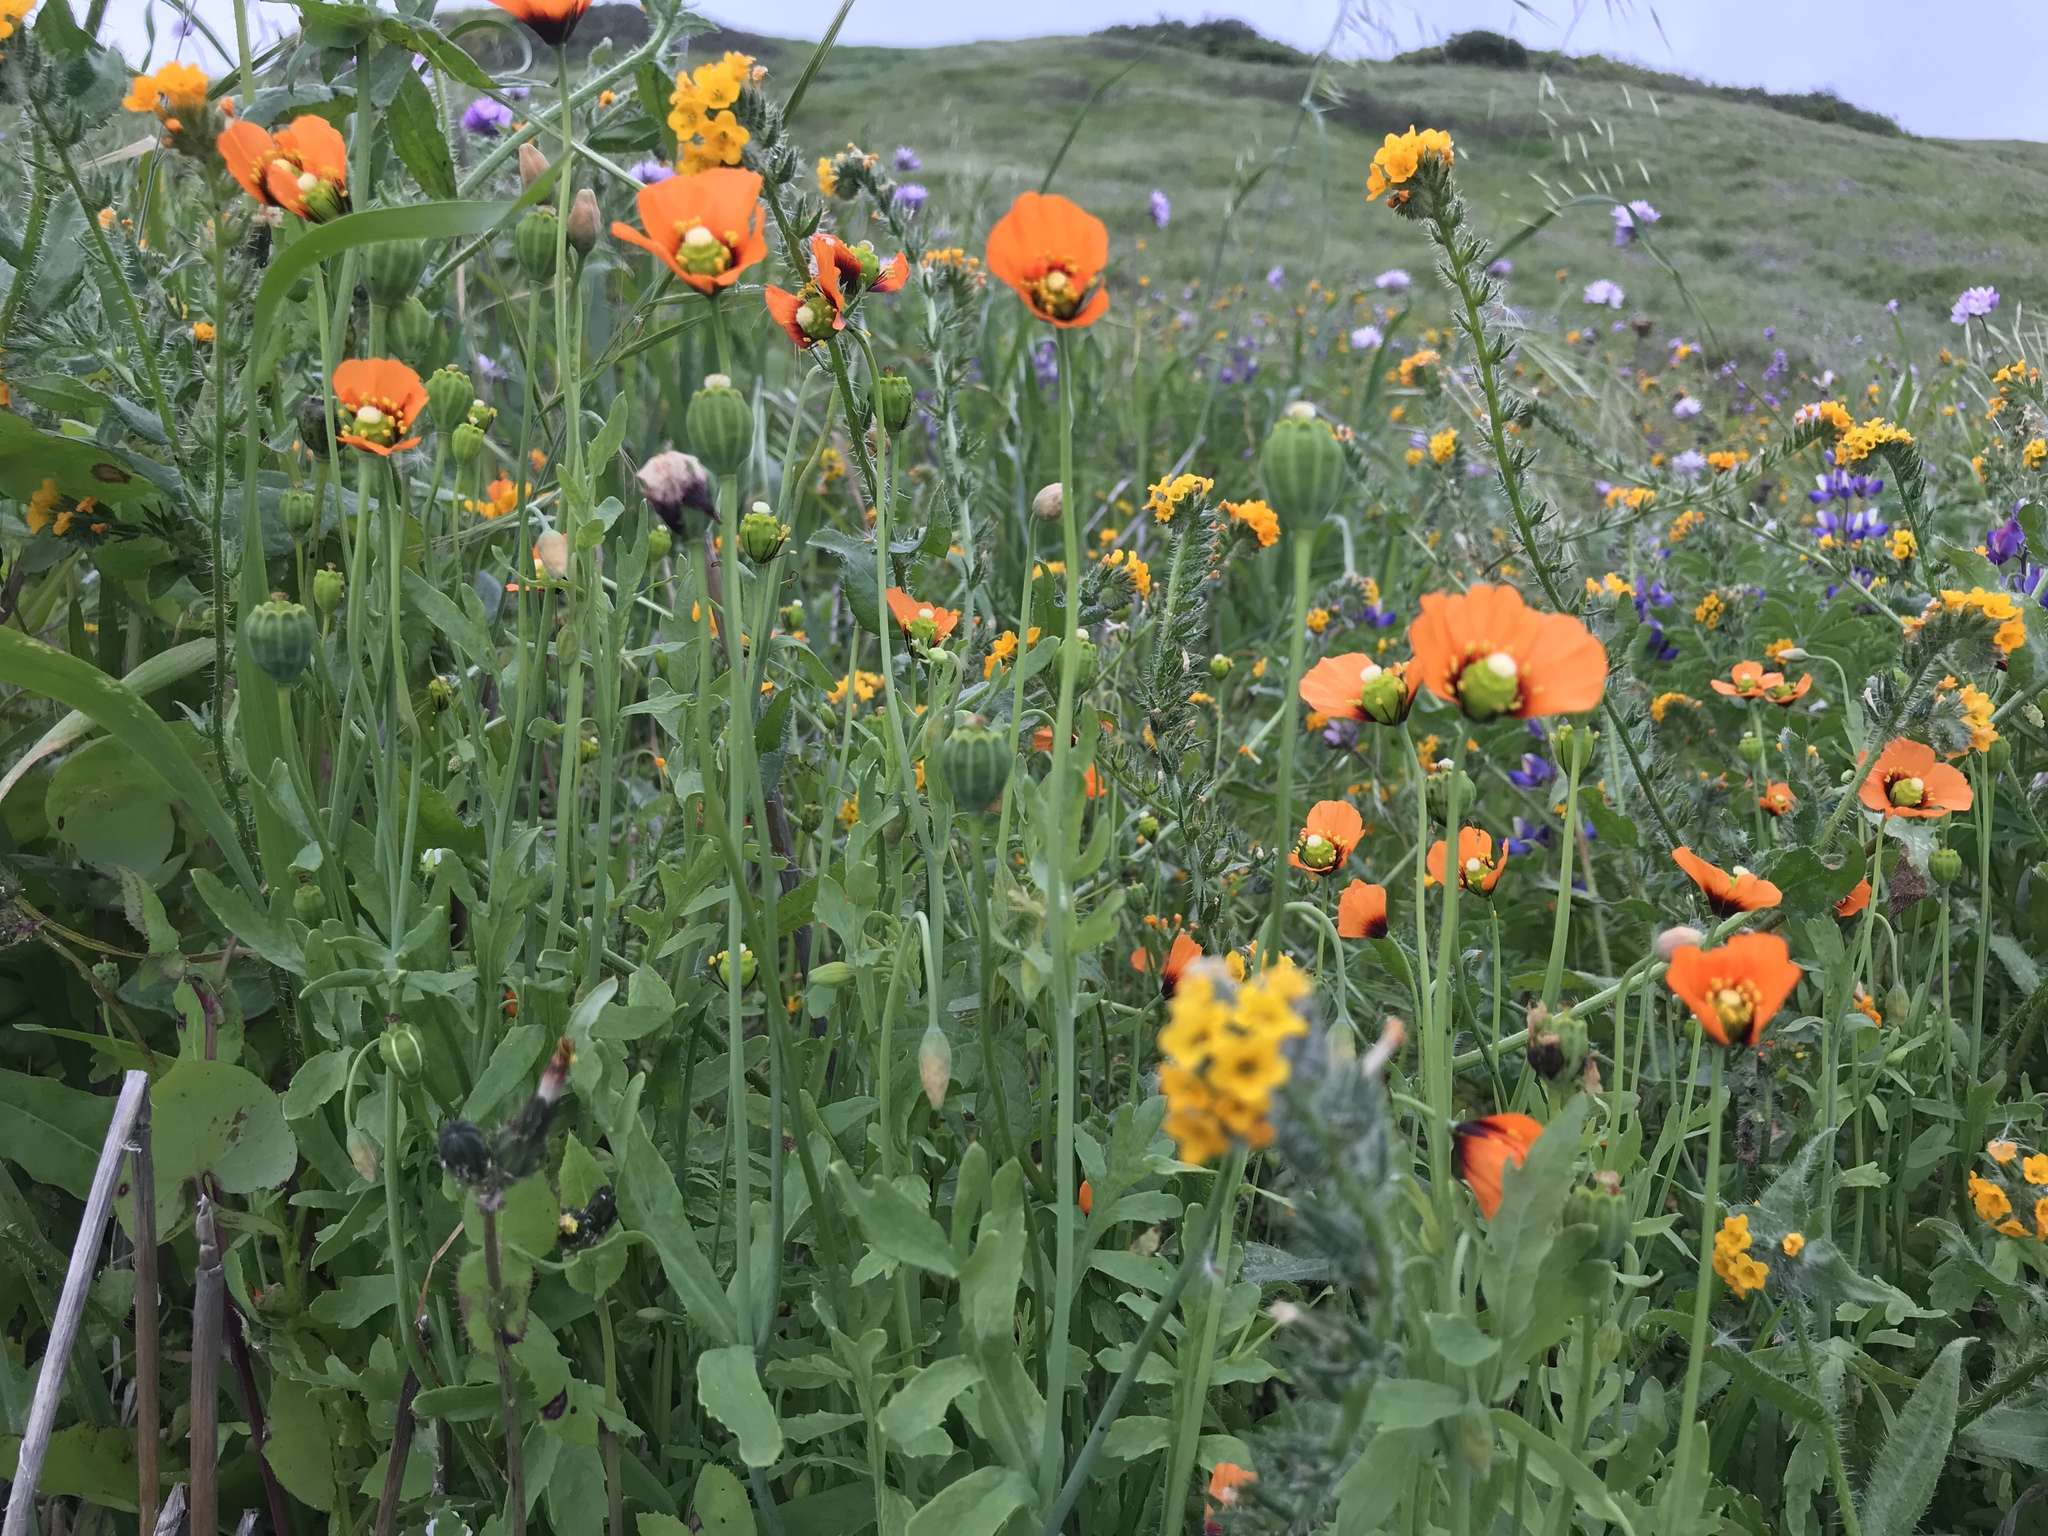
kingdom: Plantae
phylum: Tracheophyta
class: Magnoliopsida
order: Ranunculales
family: Papaveraceae
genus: Stylomecon
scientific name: Stylomecon heterophylla
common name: Flaming-poppy
